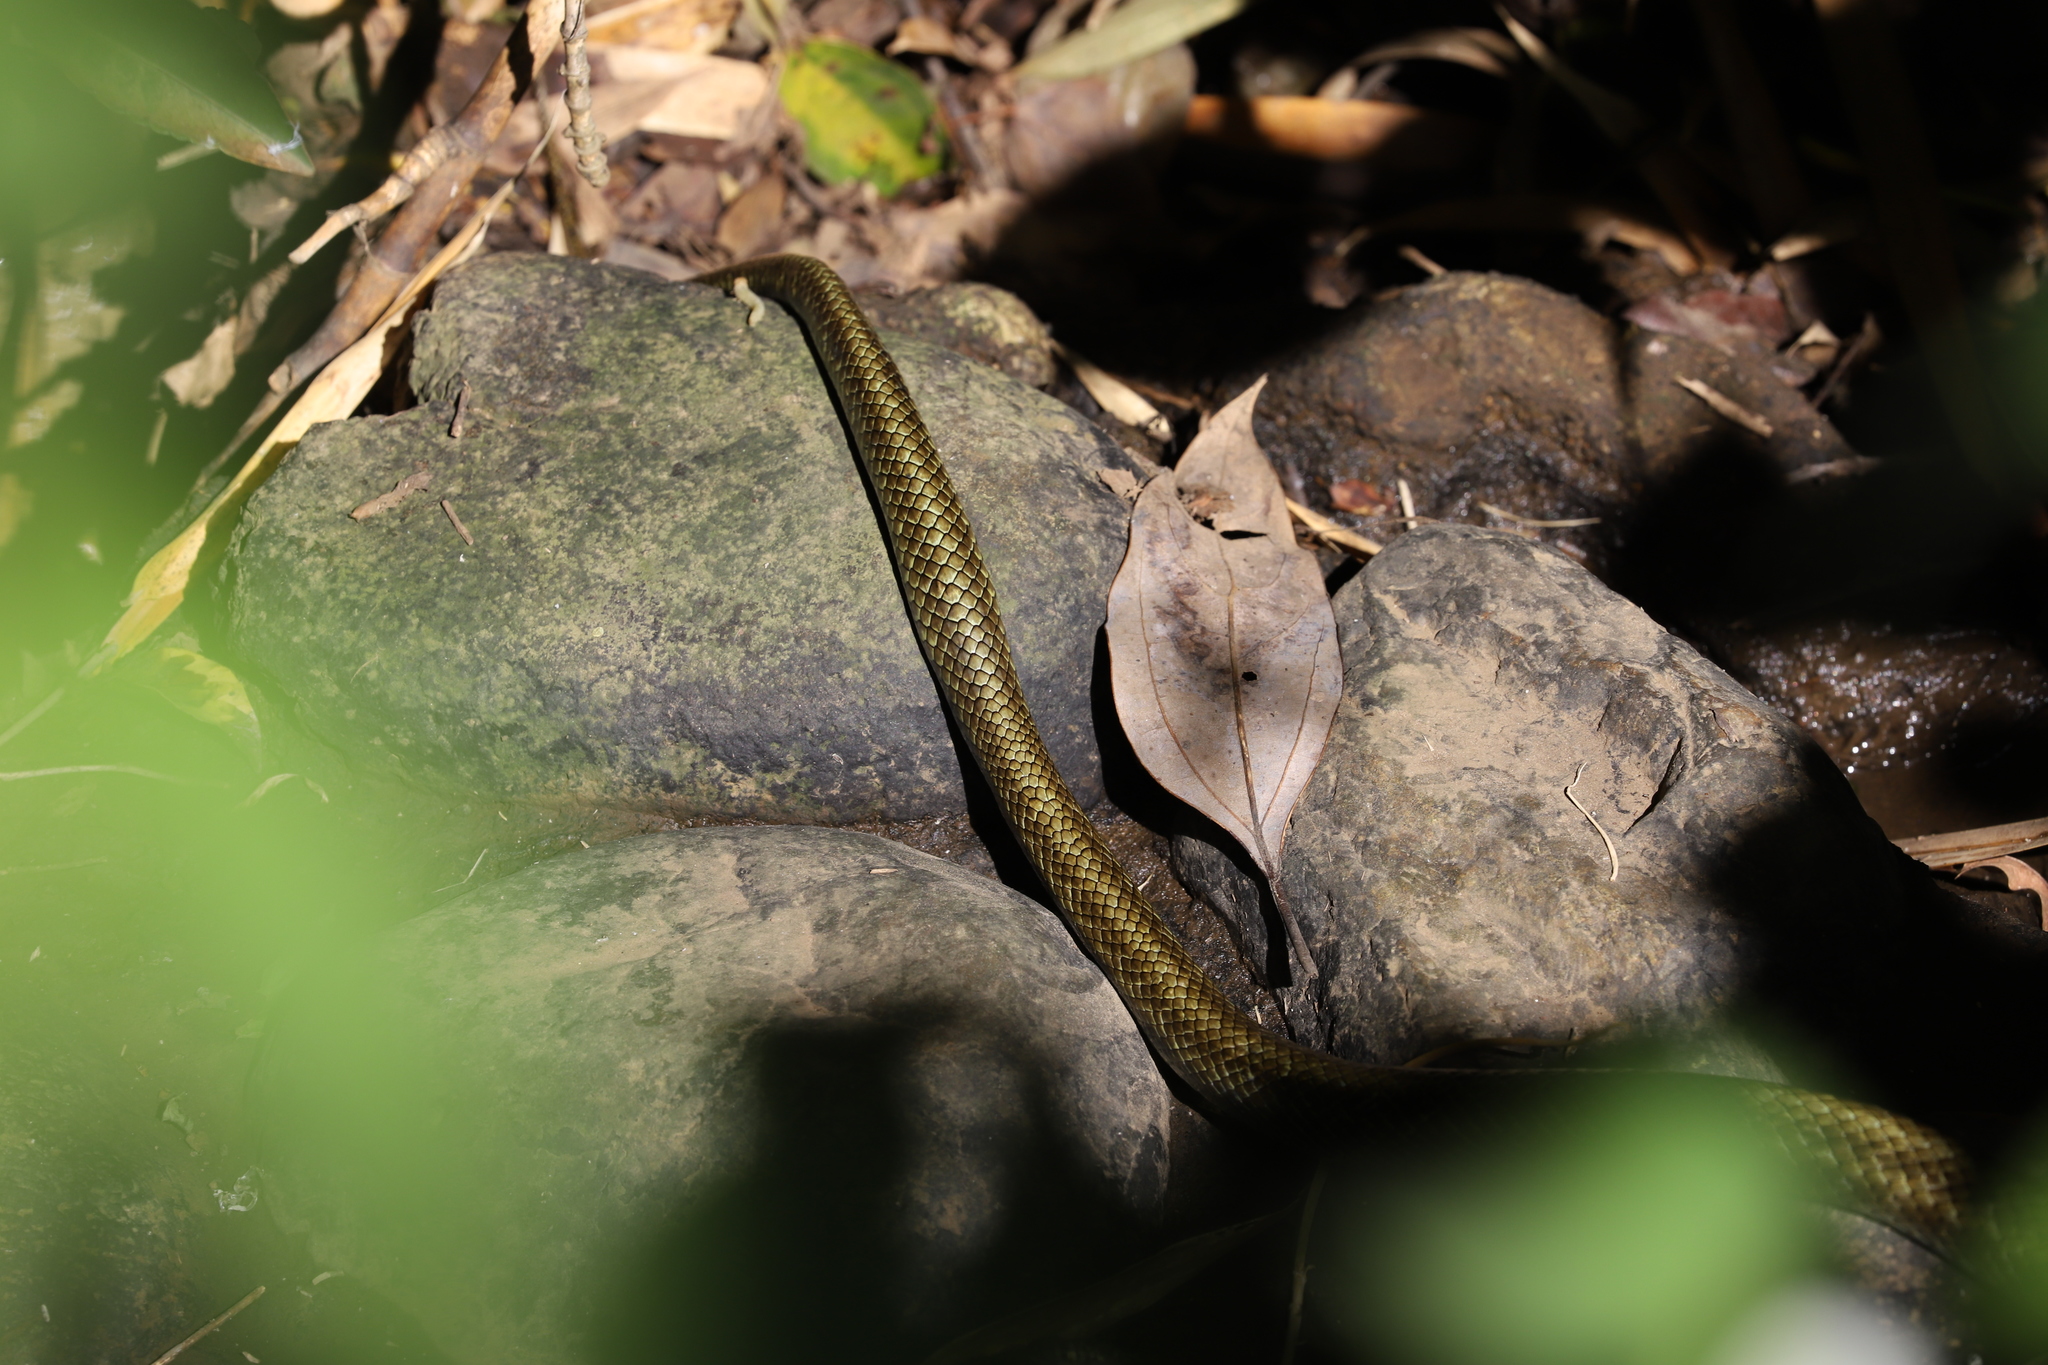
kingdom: Animalia
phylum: Chordata
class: Squamata
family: Colubridae
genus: Elaphe
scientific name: Elaphe climacophora
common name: Japanese ratsnake
